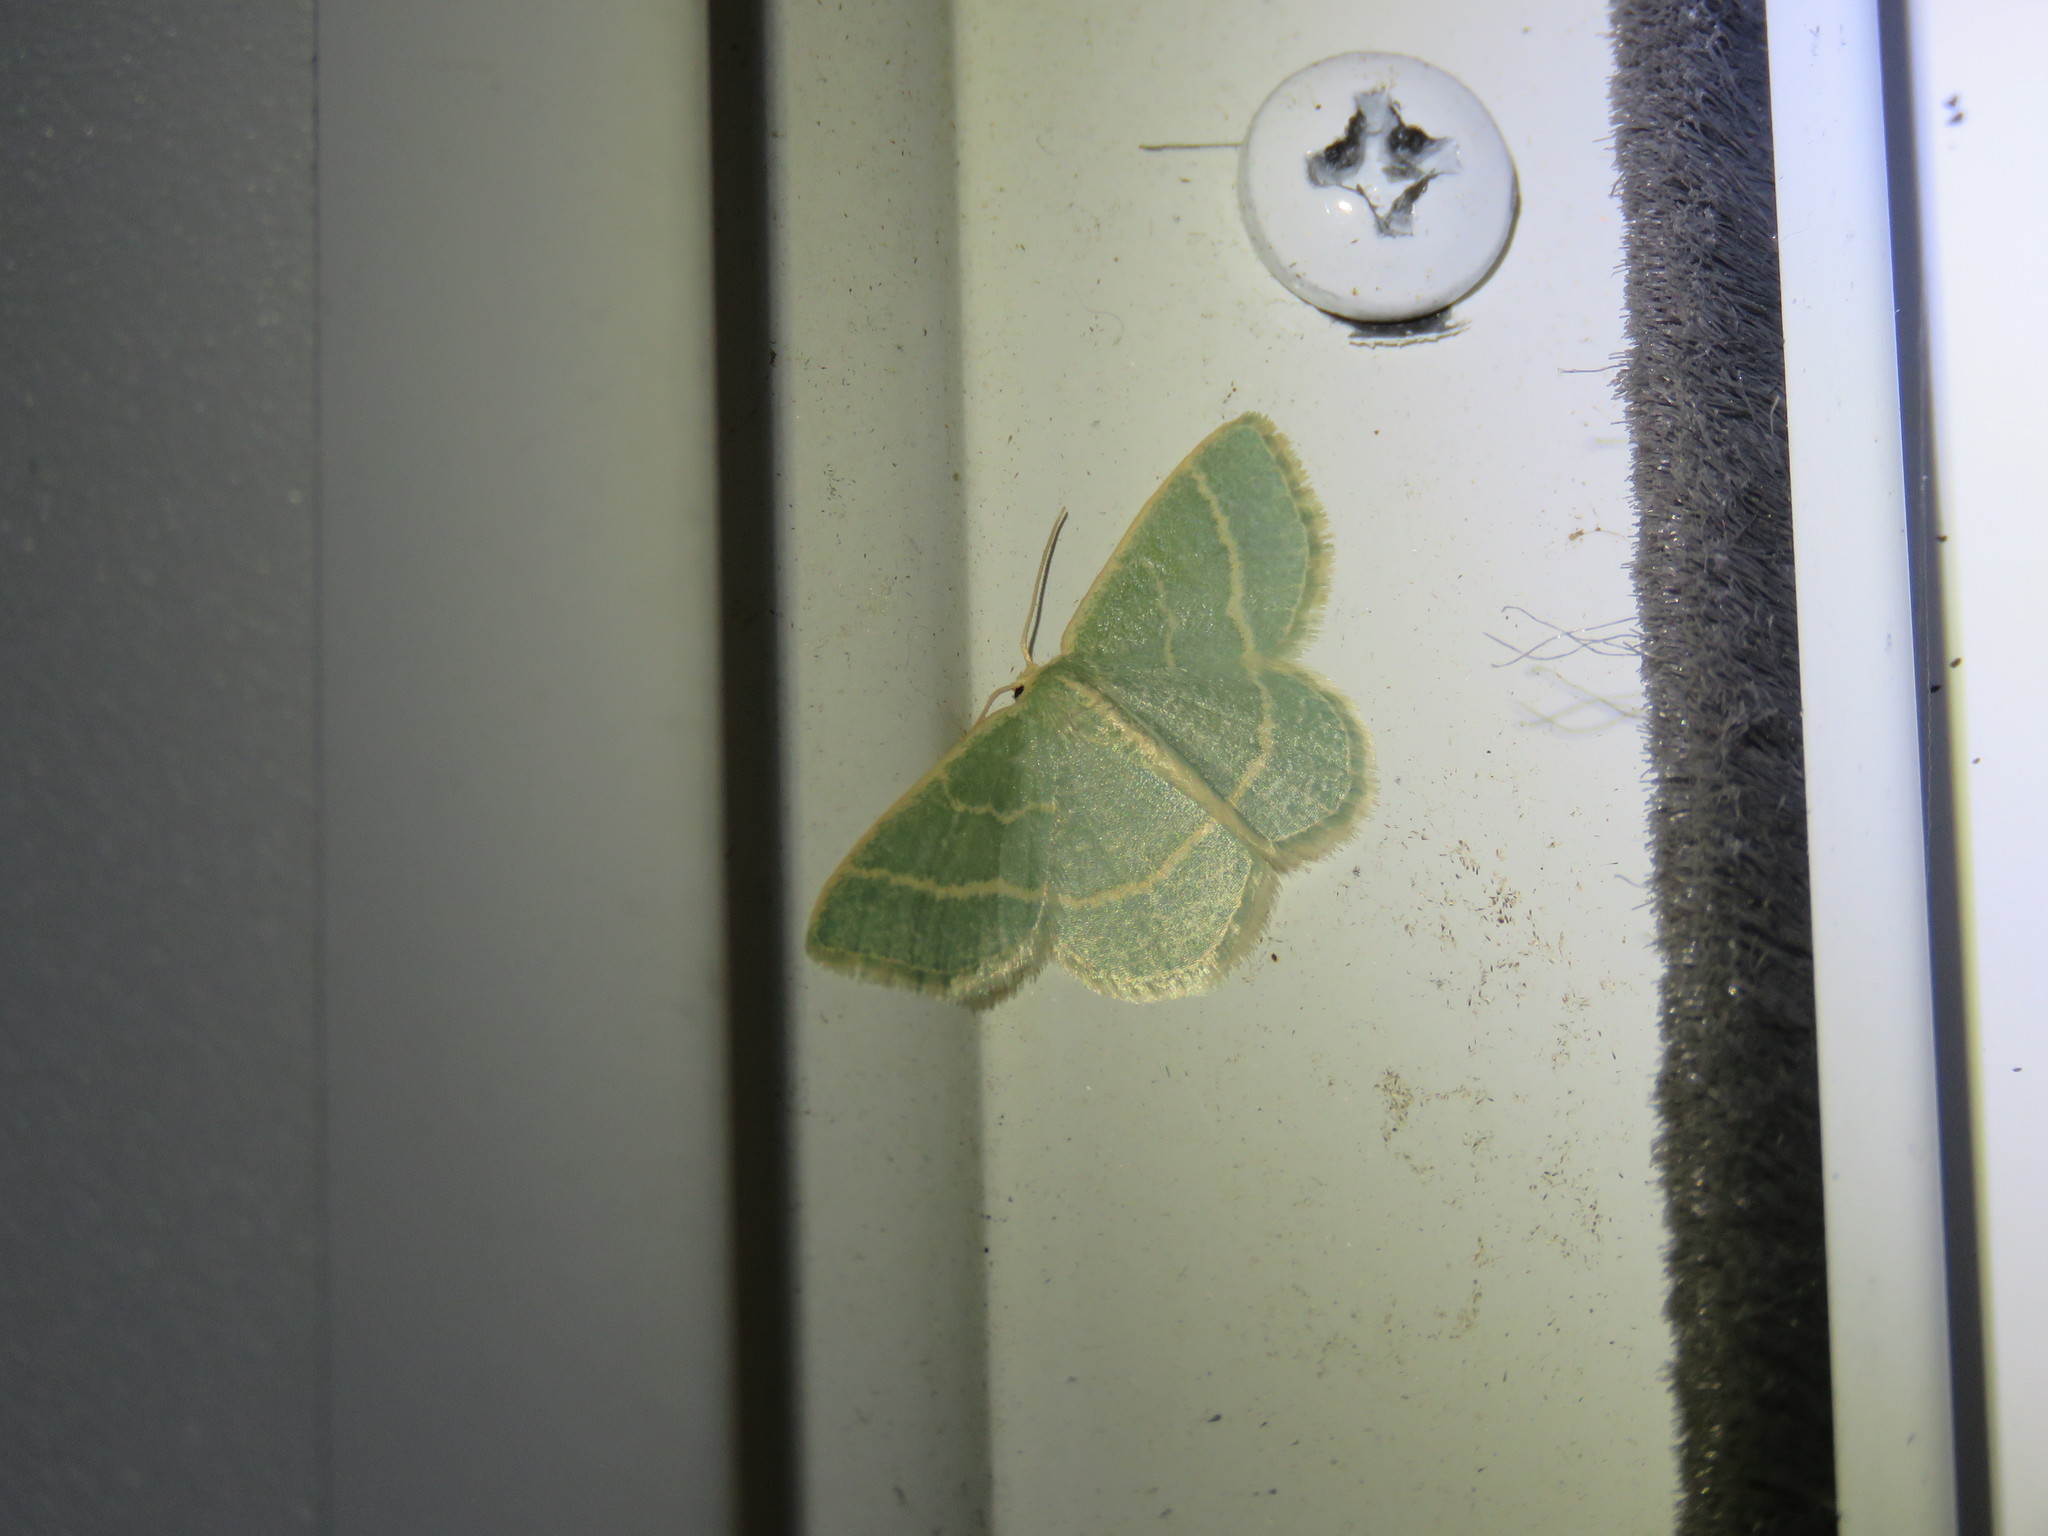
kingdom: Animalia
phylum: Arthropoda
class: Insecta
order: Lepidoptera
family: Geometridae
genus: Chlorochlamys
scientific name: Chlorochlamys chloroleucaria
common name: Blackberry looper
